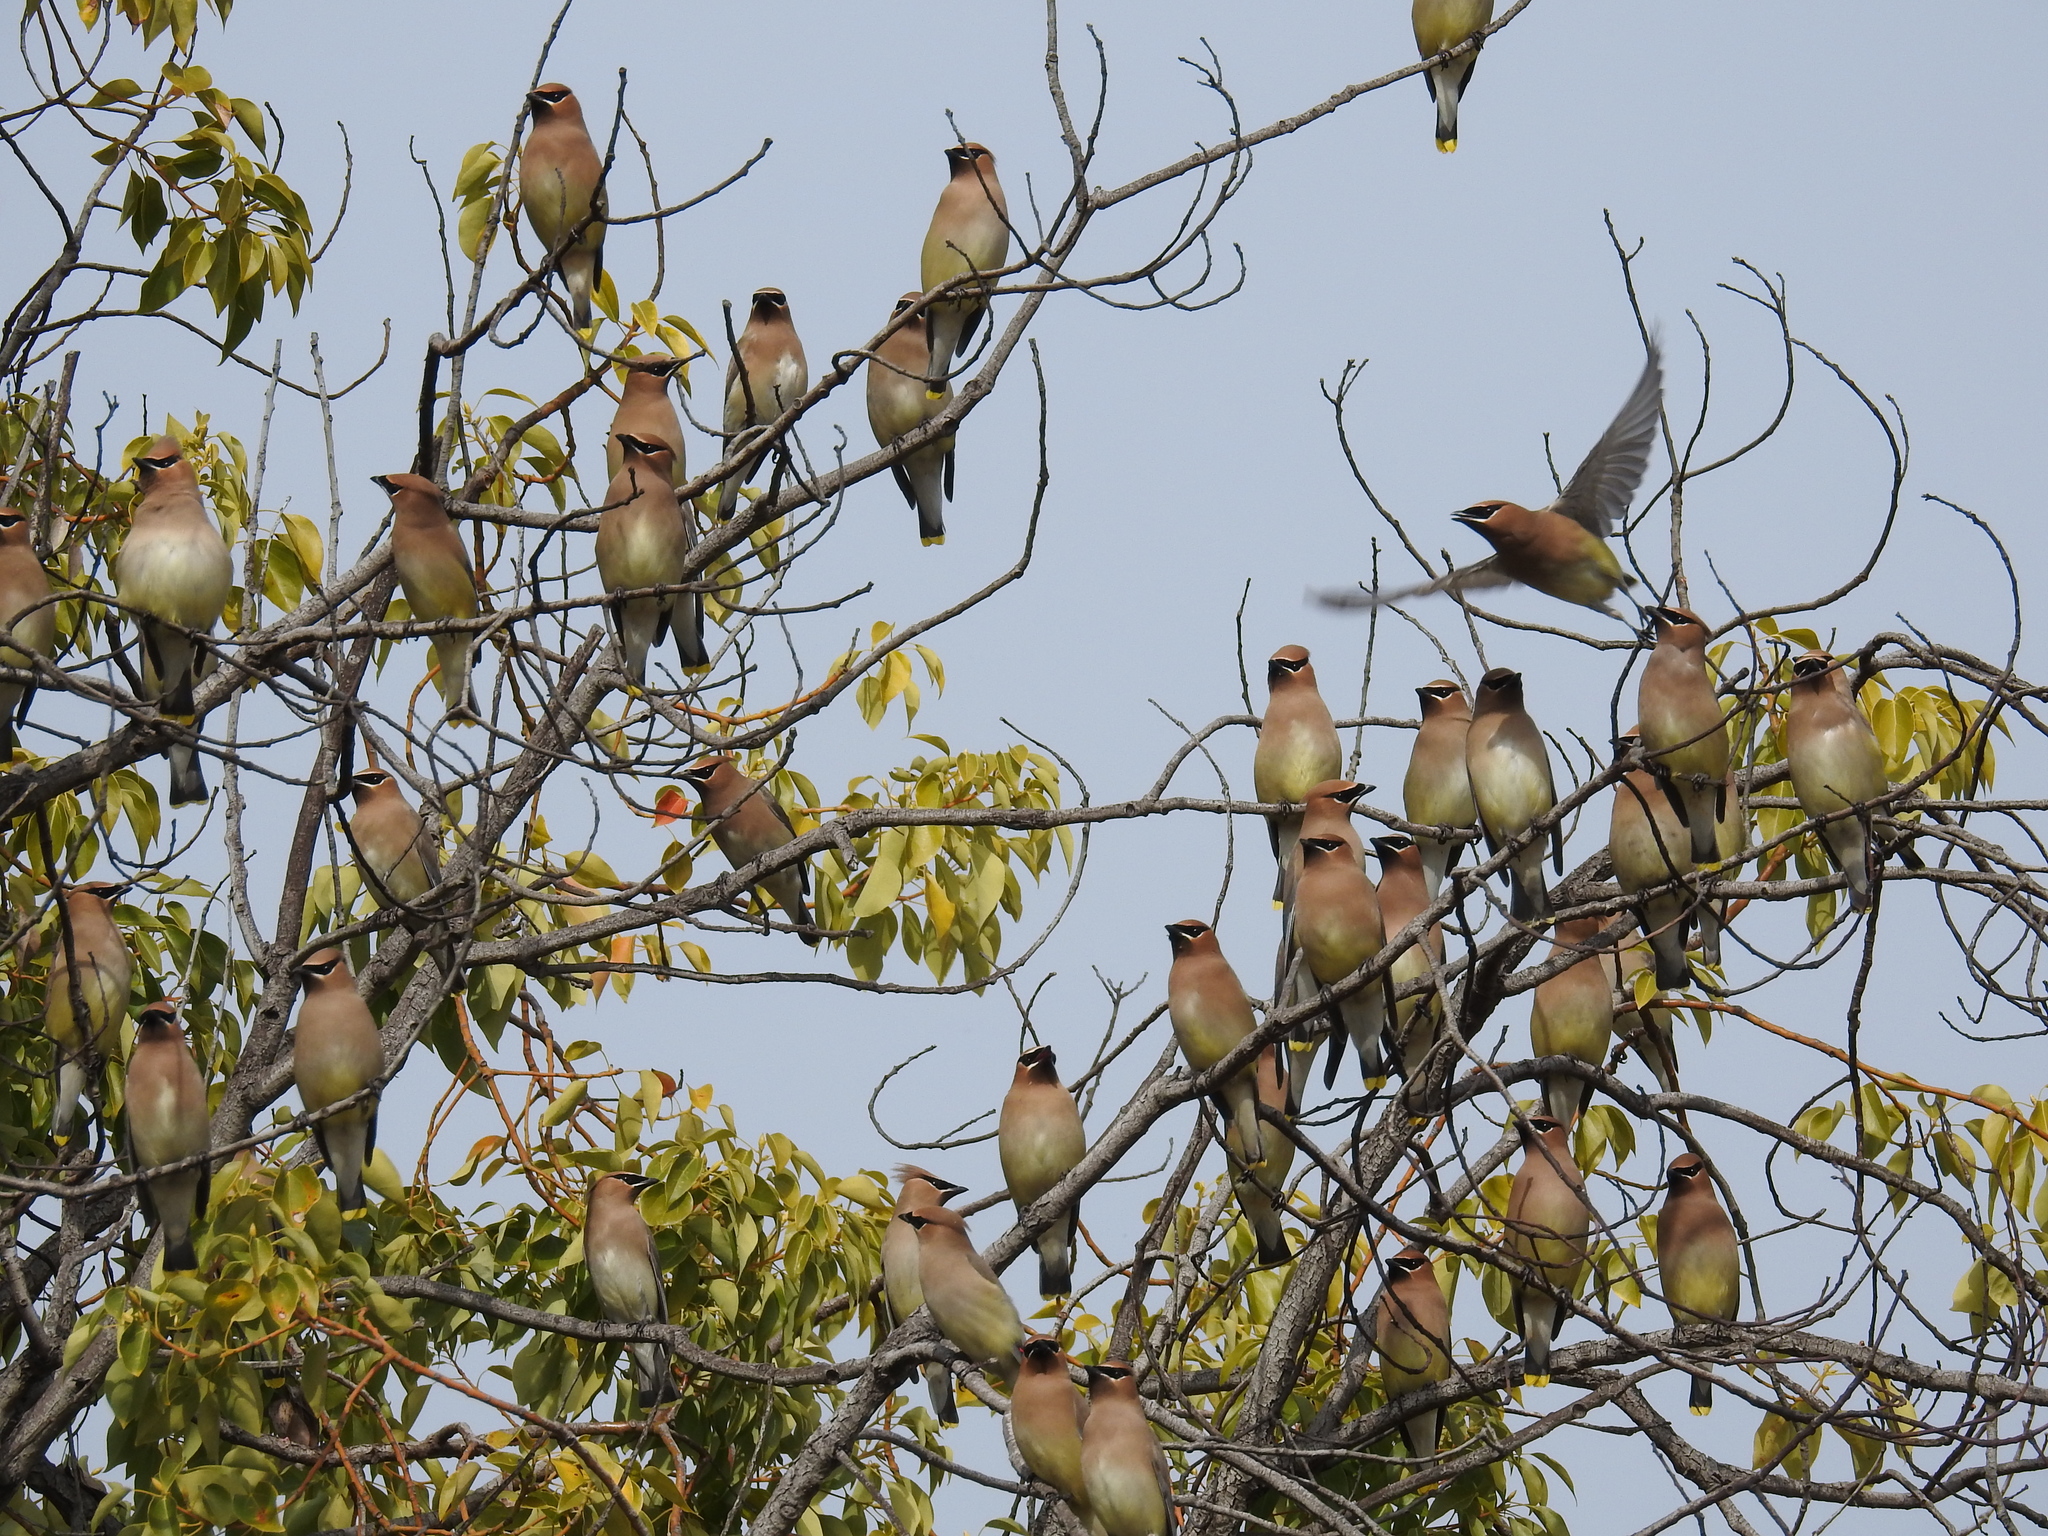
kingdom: Animalia
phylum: Chordata
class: Aves
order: Passeriformes
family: Bombycillidae
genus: Bombycilla
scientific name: Bombycilla cedrorum
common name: Cedar waxwing
